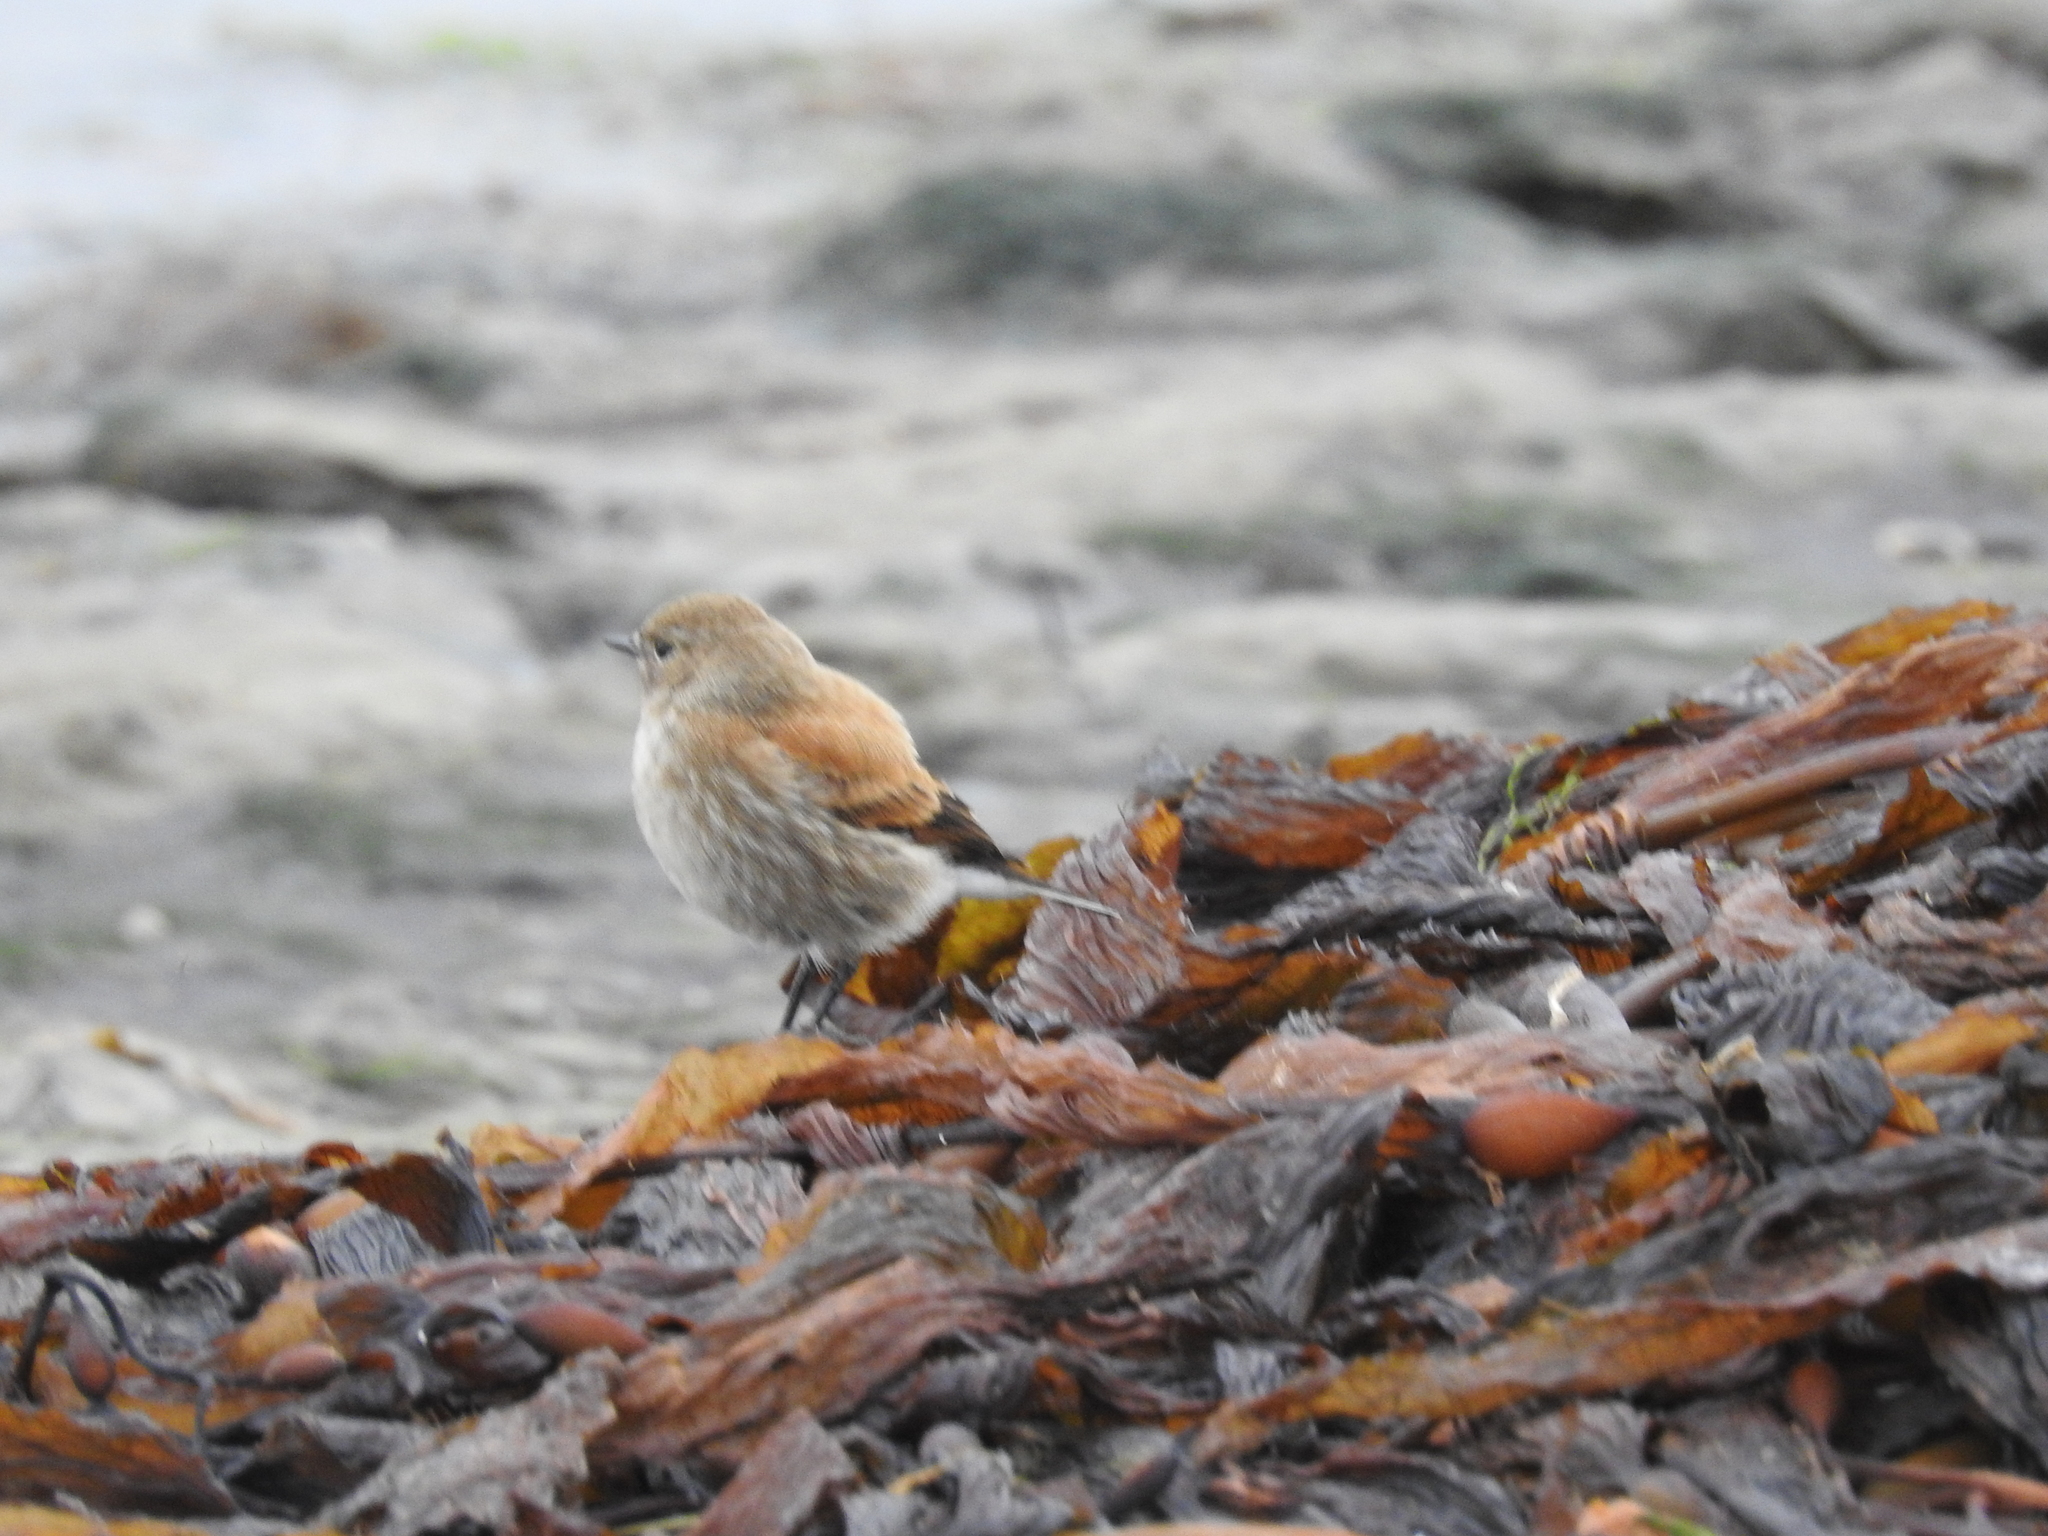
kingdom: Animalia
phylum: Chordata
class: Aves
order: Passeriformes
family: Tyrannidae
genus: Lessonia
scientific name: Lessonia rufa
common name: Austral negrito
